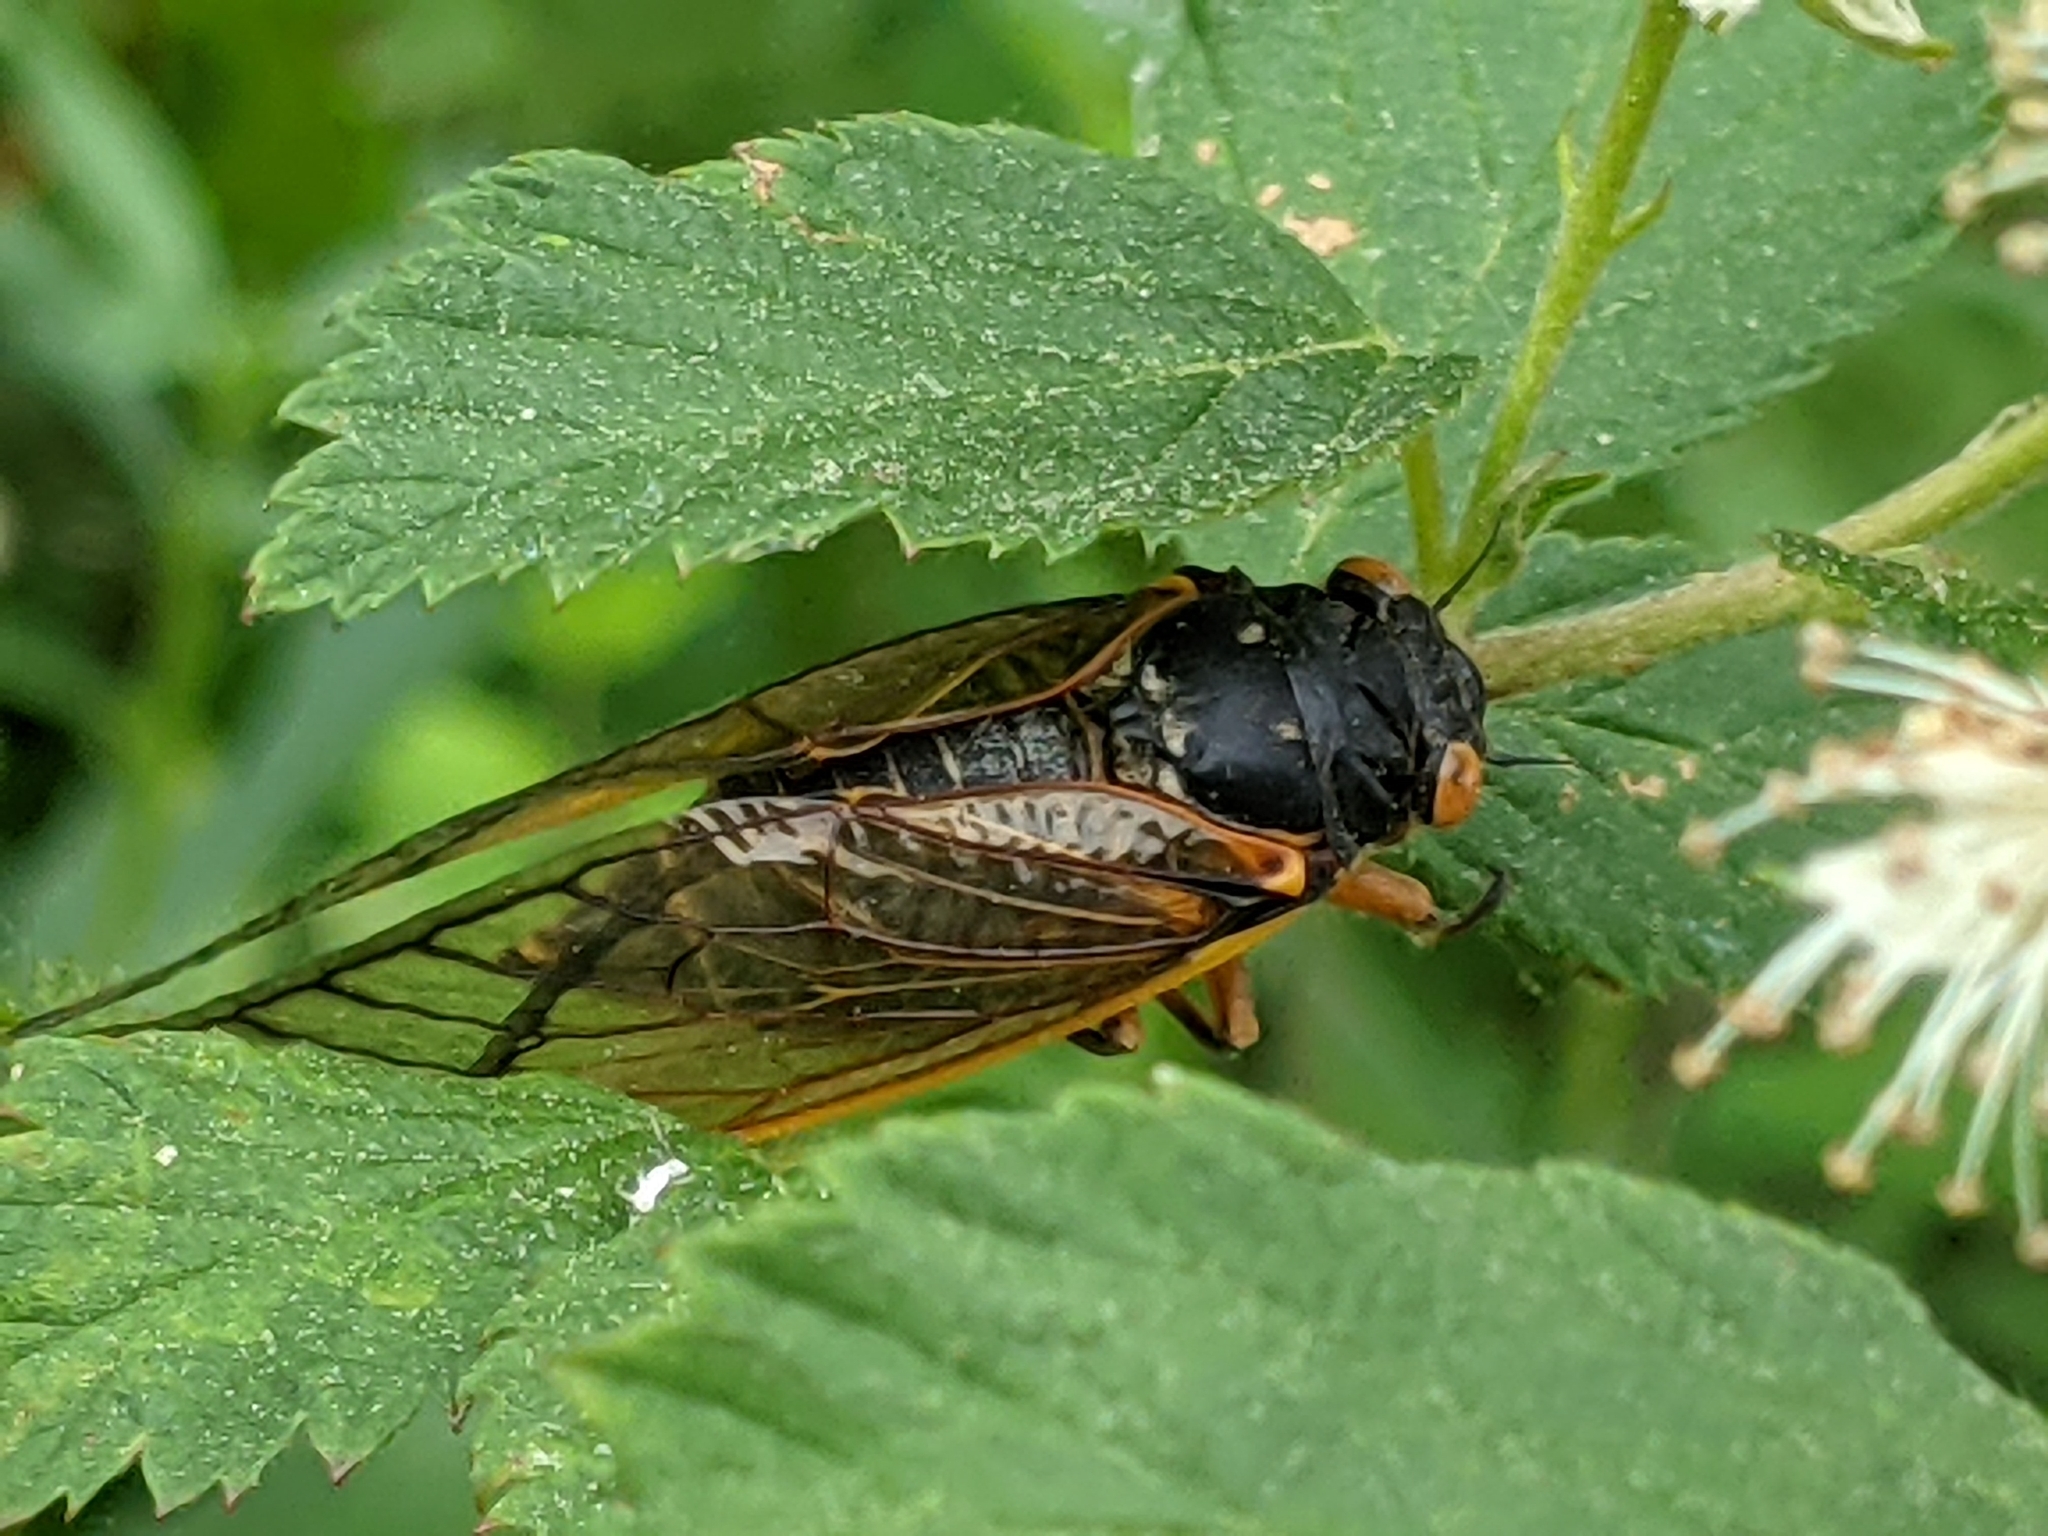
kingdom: Animalia
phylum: Arthropoda
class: Insecta
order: Hemiptera
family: Cicadidae
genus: Magicicada
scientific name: Magicicada septendecim
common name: Periodical cicada
